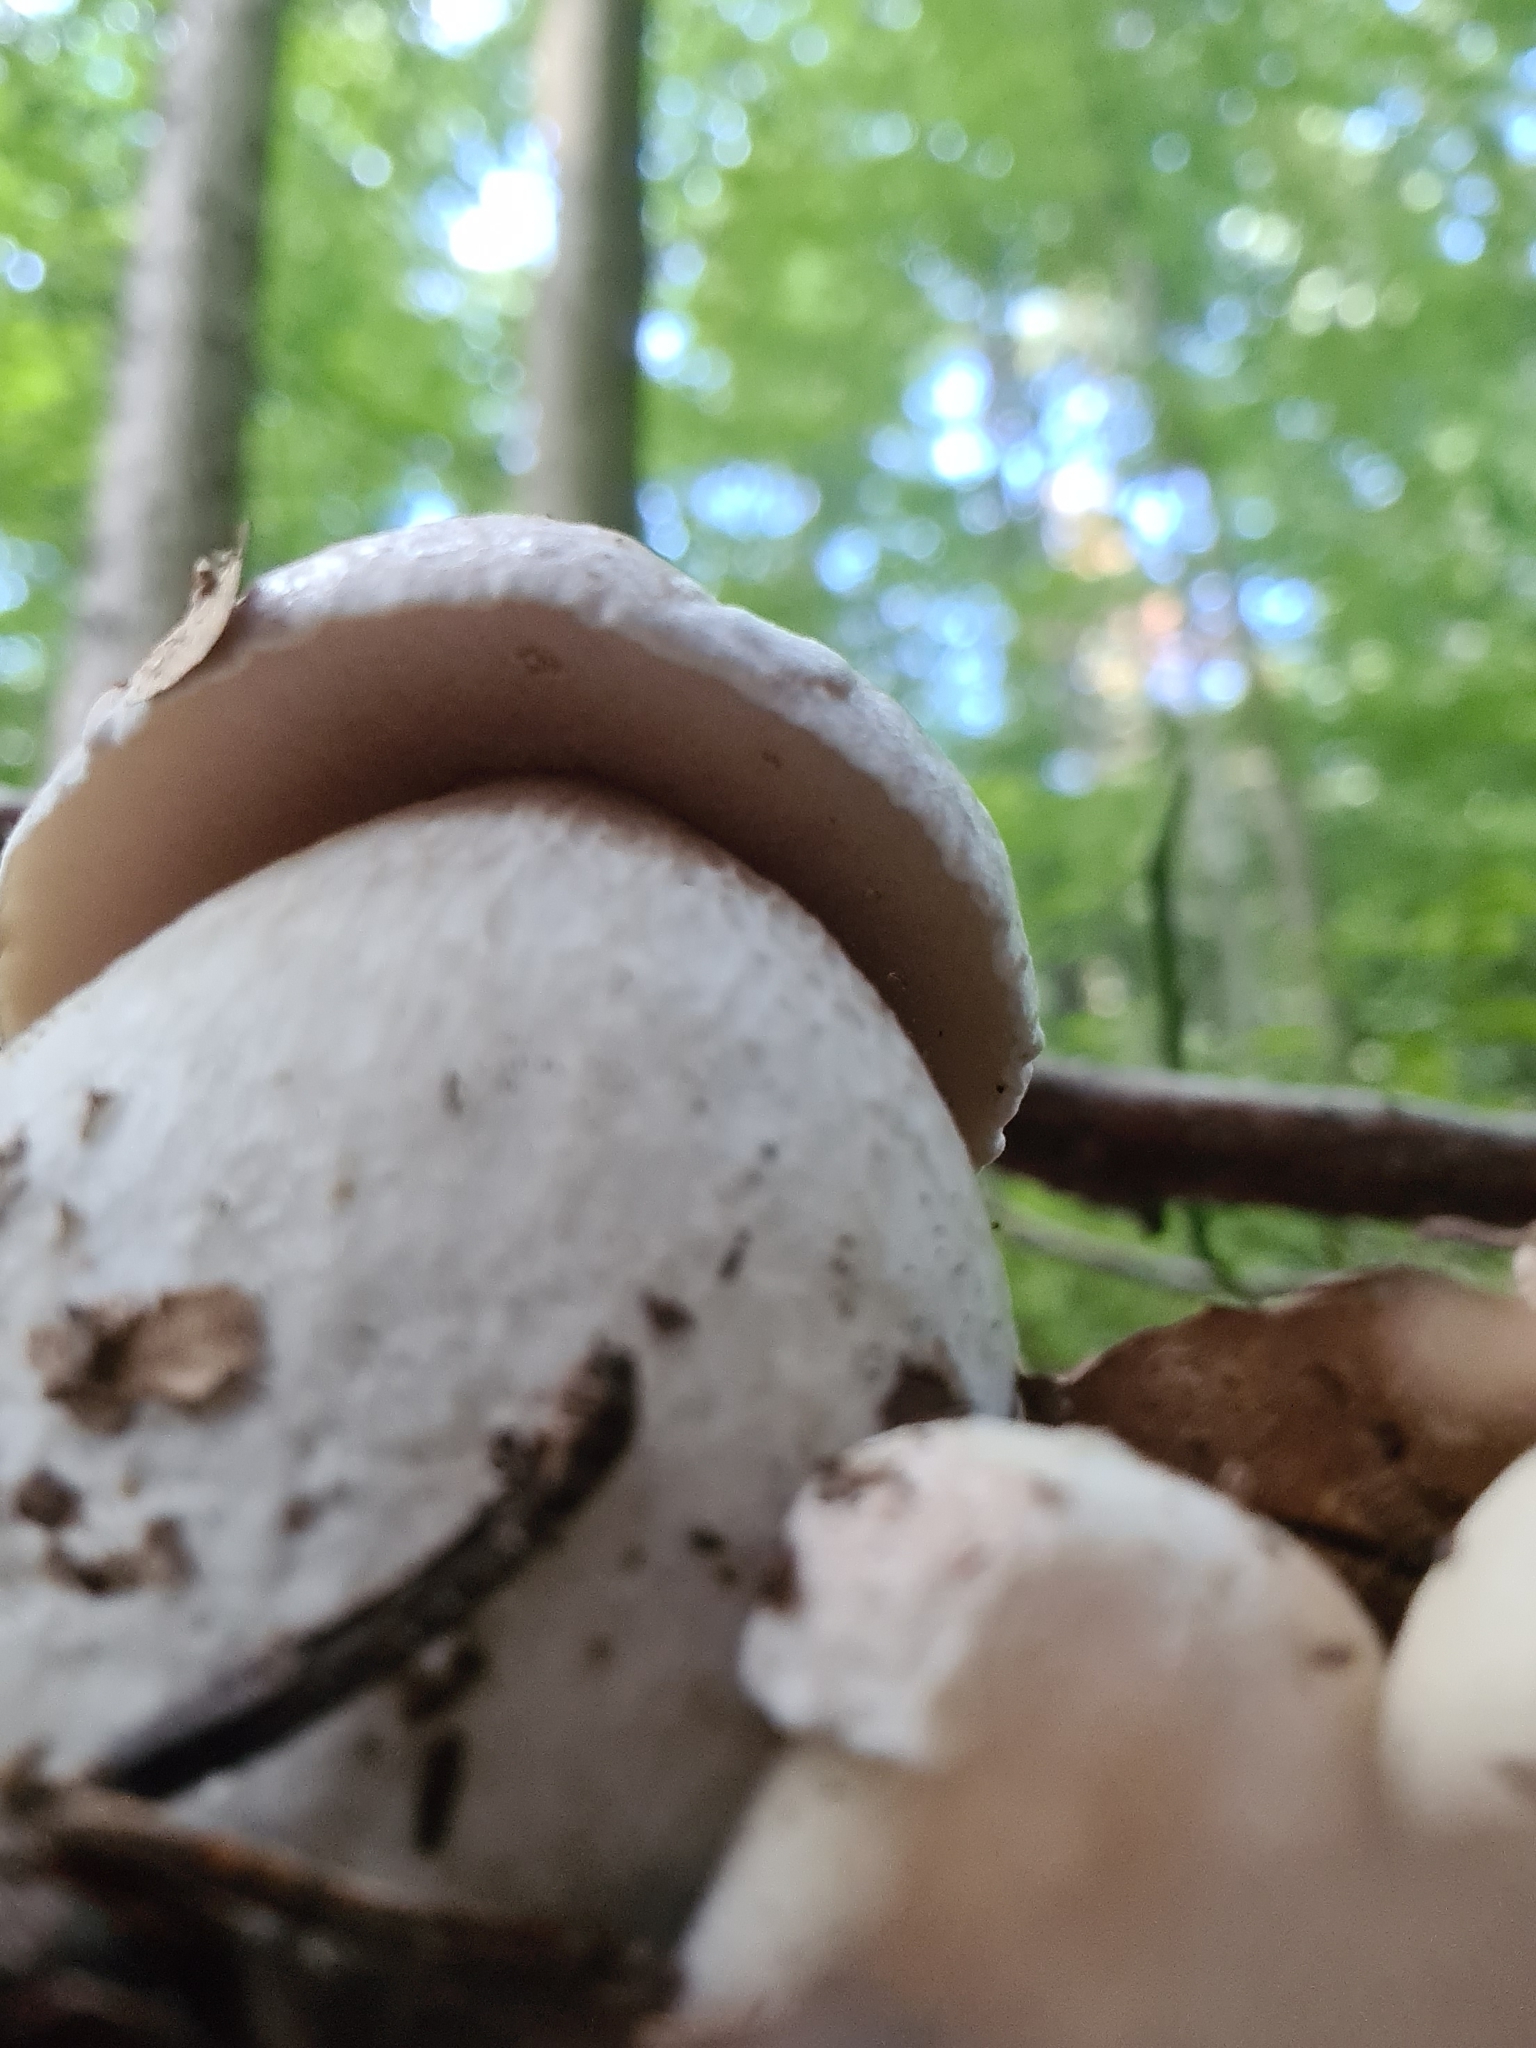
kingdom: Fungi
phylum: Basidiomycota
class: Agaricomycetes
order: Boletales
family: Boletaceae
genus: Boletus
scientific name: Boletus edulis
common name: Cep
